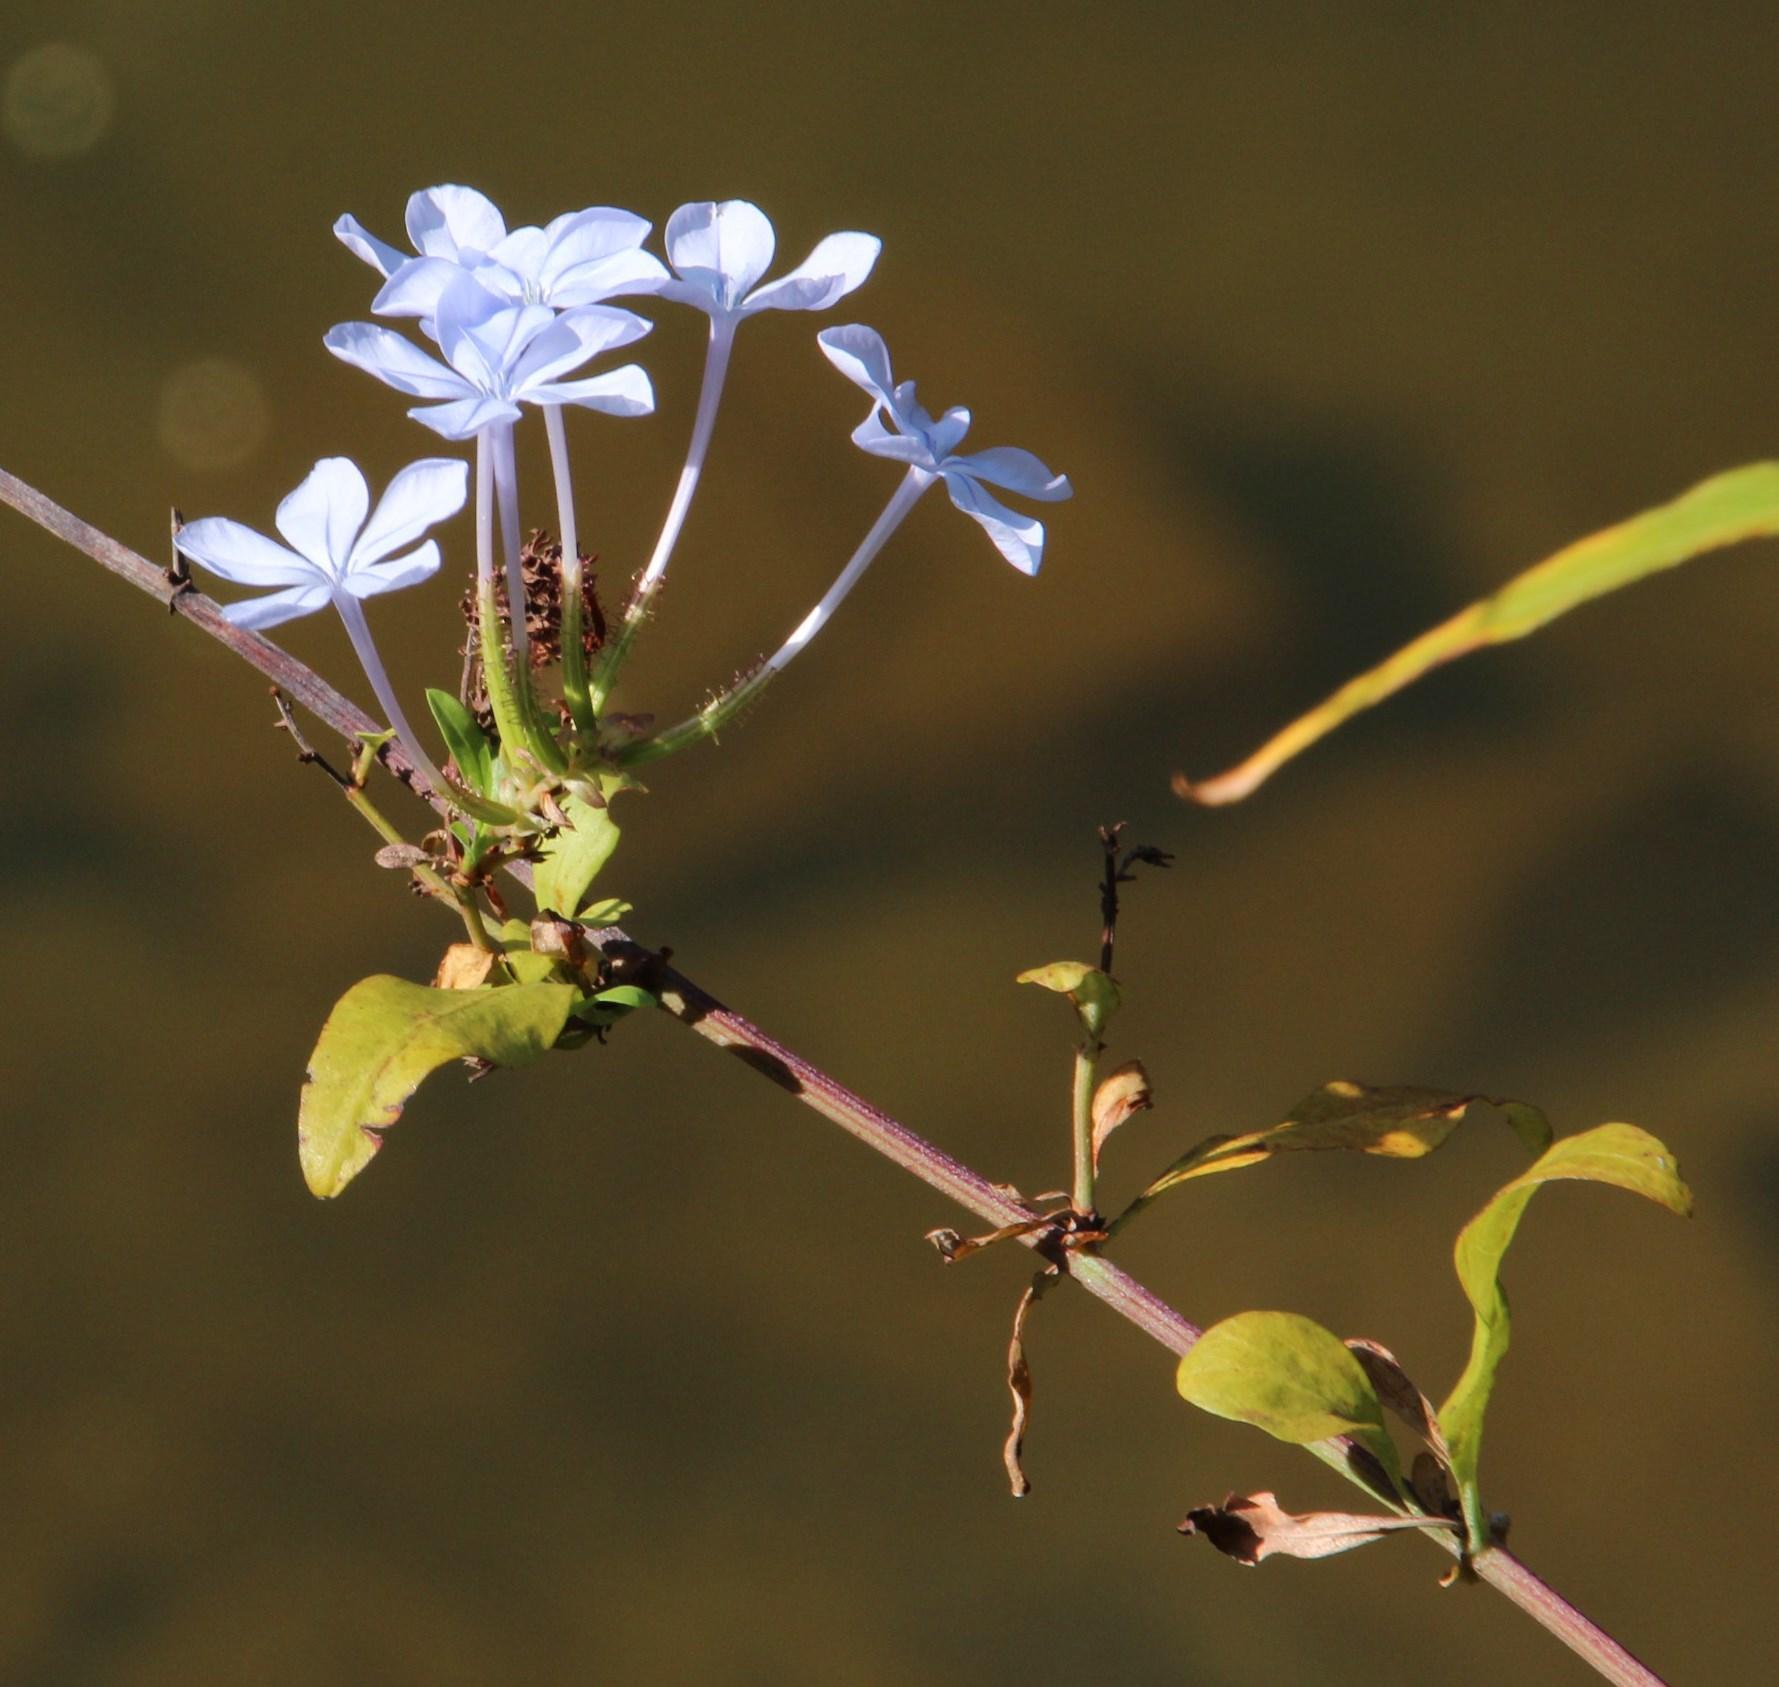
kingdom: Plantae
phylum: Tracheophyta
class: Magnoliopsida
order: Caryophyllales
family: Plumbaginaceae
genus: Plumbago
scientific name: Plumbago auriculata
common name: Cape leadwort
